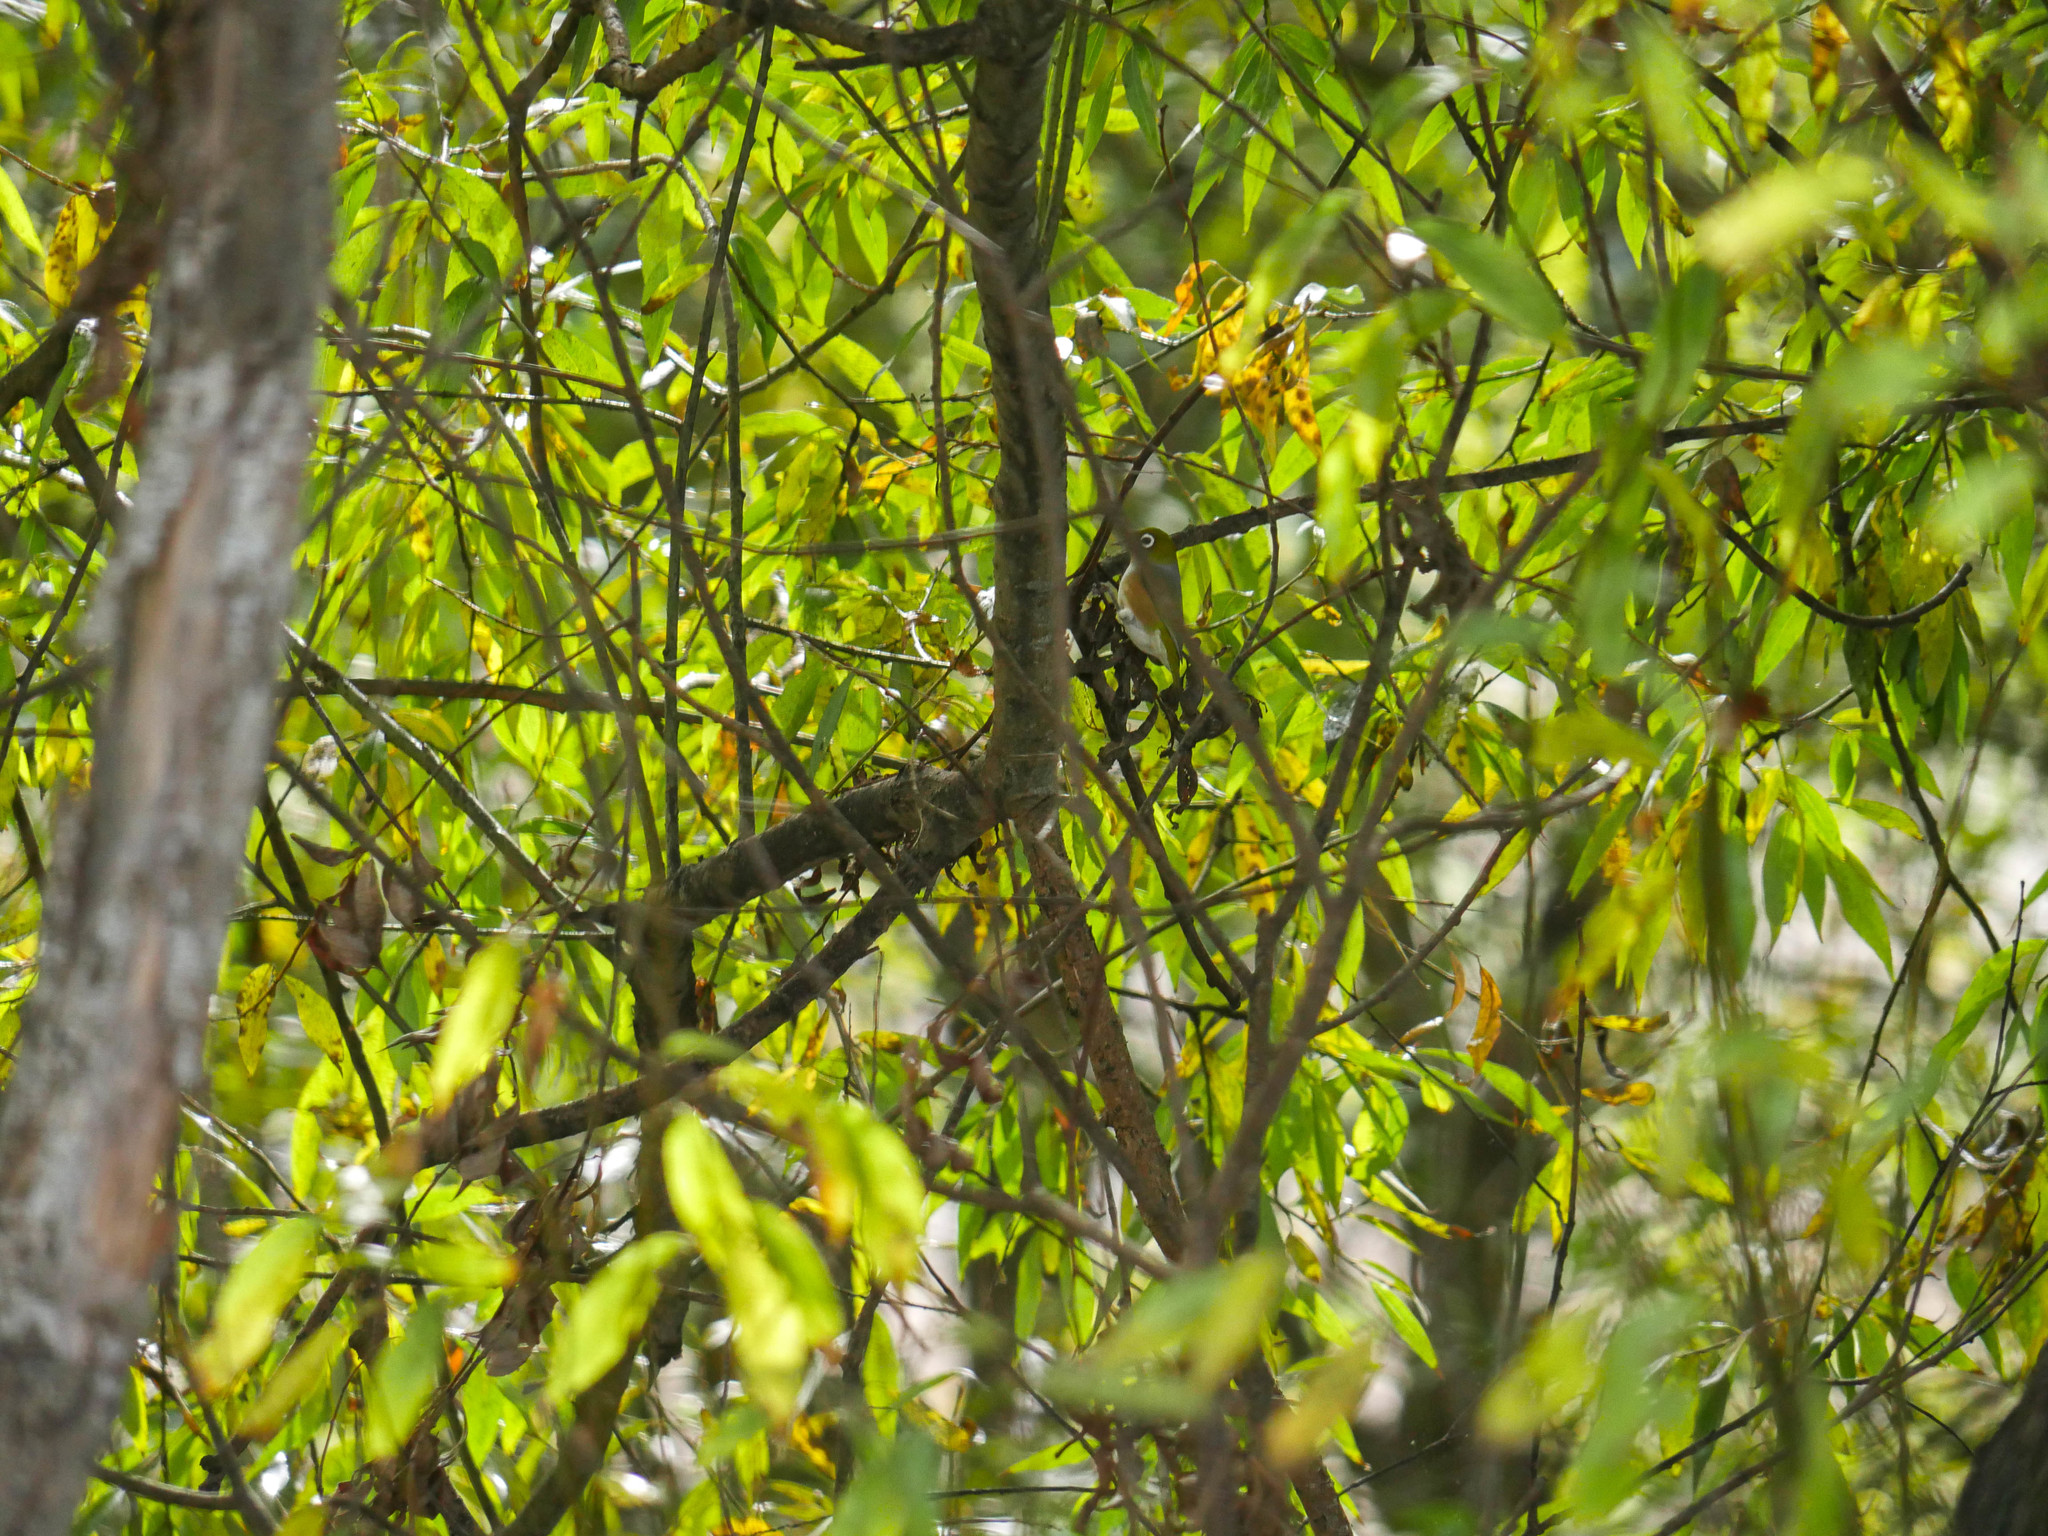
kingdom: Animalia
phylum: Chordata
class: Aves
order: Passeriformes
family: Zosteropidae
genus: Zosterops
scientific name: Zosterops lateralis
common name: Silvereye
